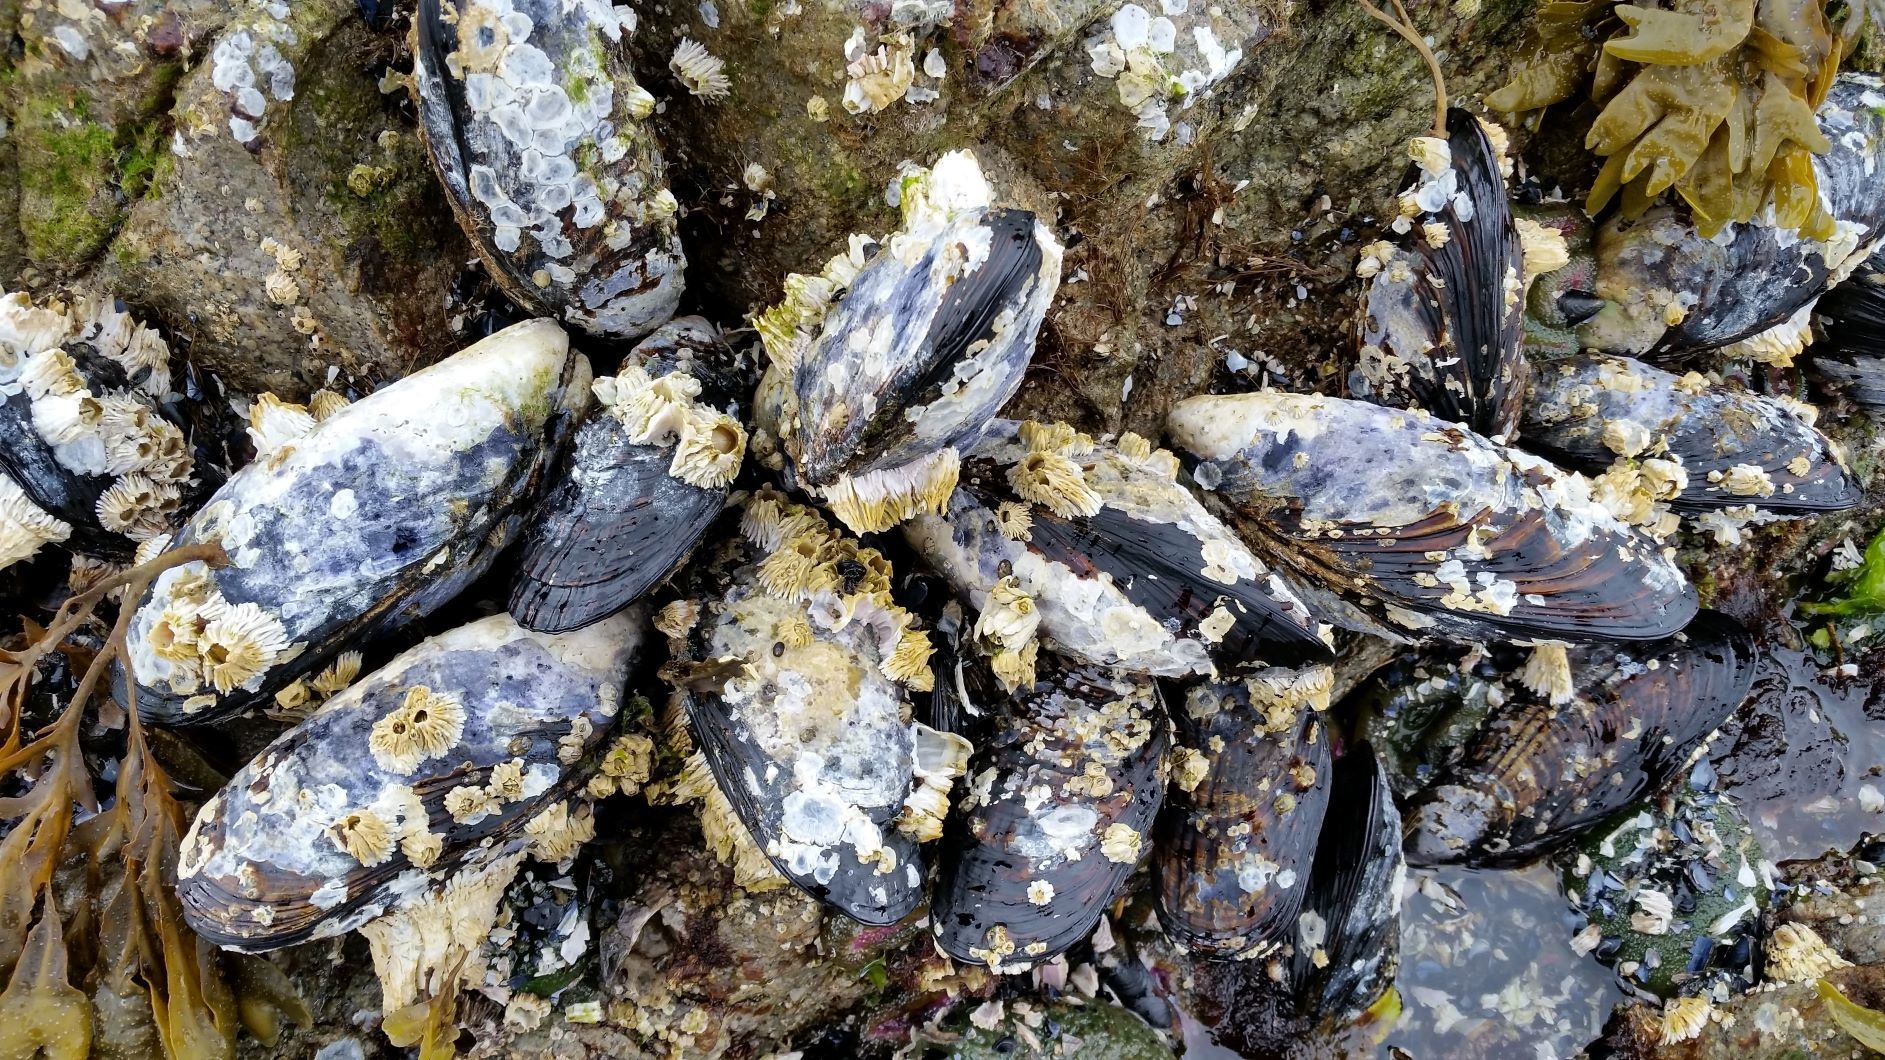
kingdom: Animalia
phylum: Mollusca
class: Bivalvia
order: Mytilida
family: Mytilidae
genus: Mytilus
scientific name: Mytilus californianus
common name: California mussel
